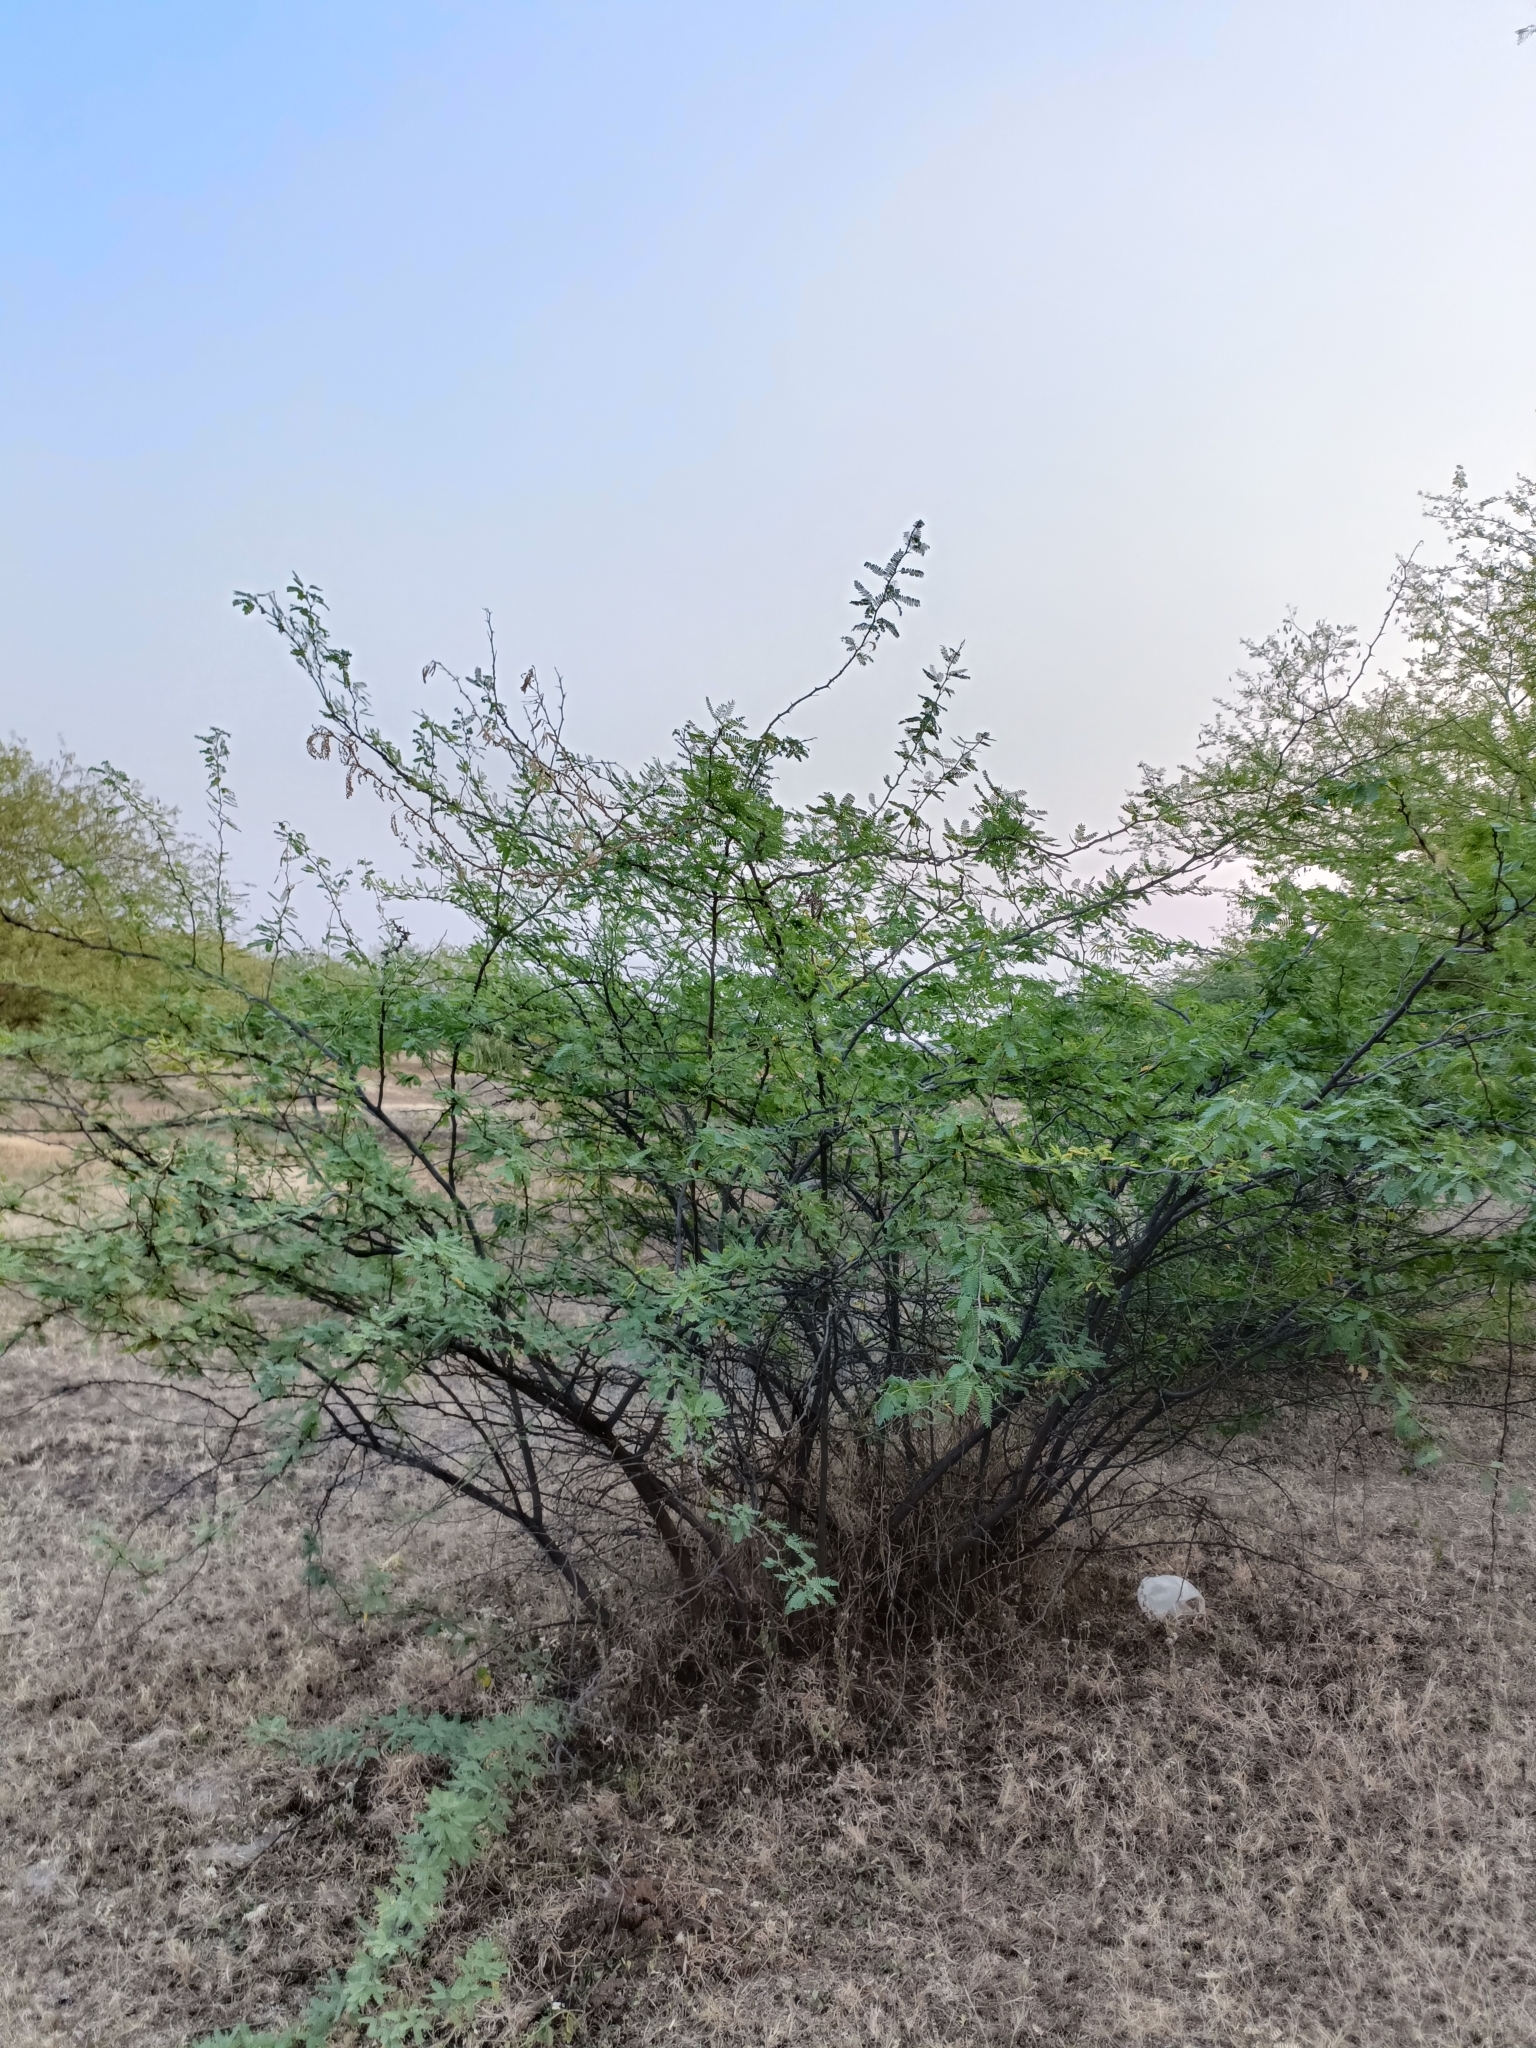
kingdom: Plantae
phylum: Tracheophyta
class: Magnoliopsida
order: Fabales
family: Fabaceae
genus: Prosopis
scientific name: Prosopis juliflora
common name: Mesquite
